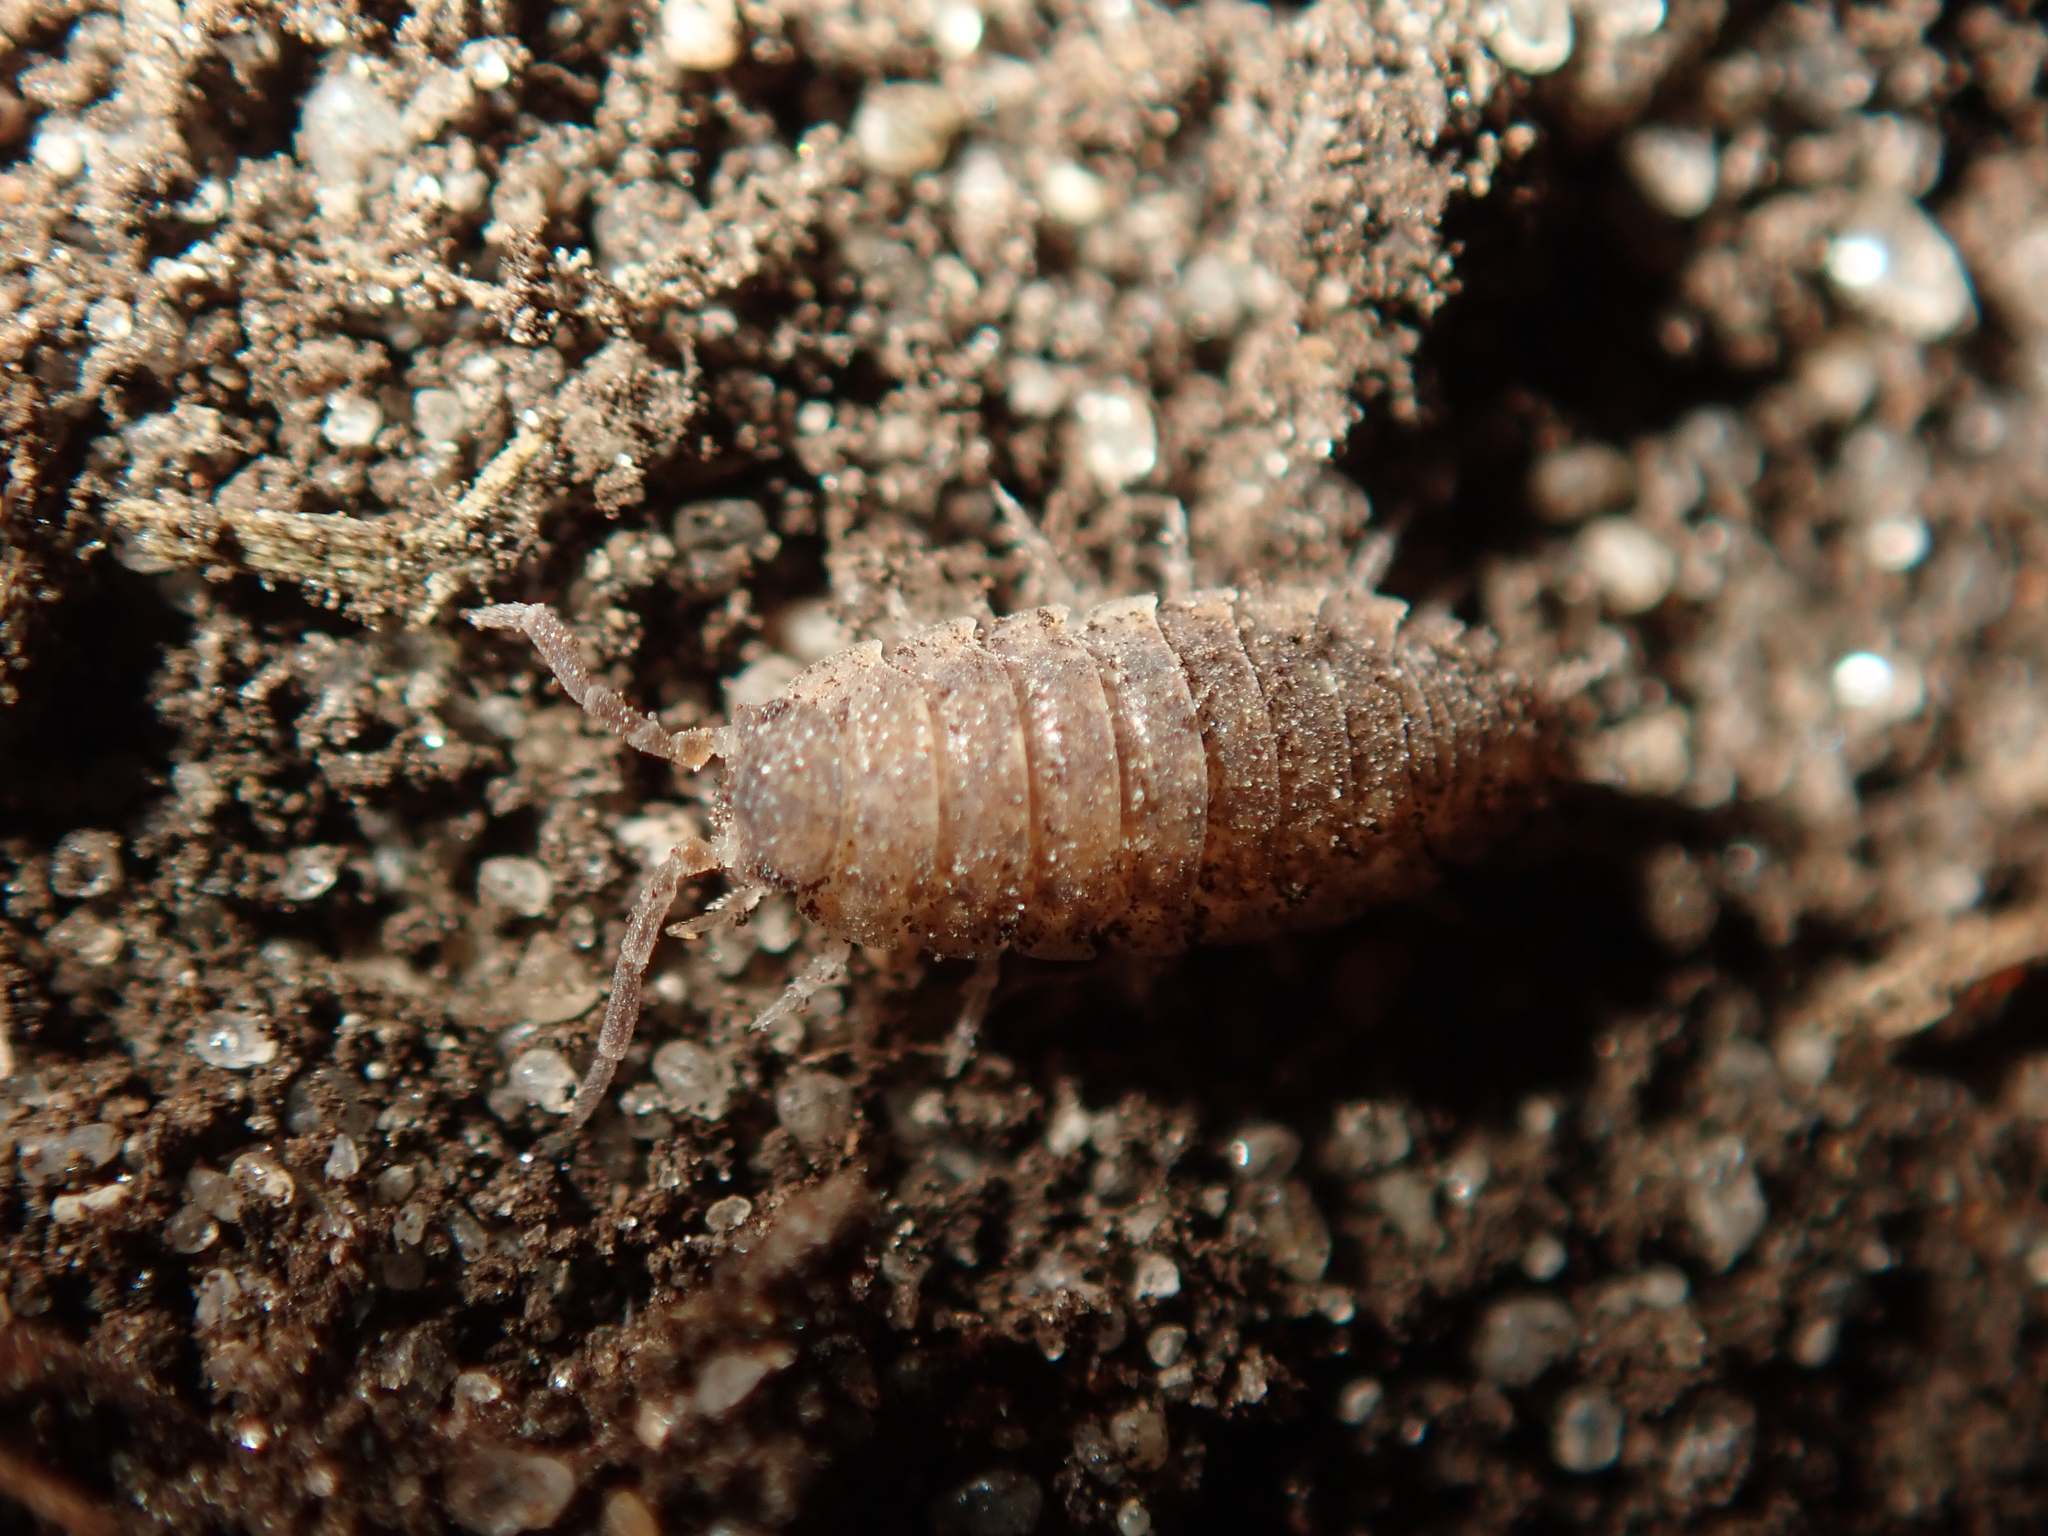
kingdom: Animalia
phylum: Arthropoda
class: Malacostraca
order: Isopoda
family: Porcellionidae
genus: Porcellio
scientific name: Porcellio scaber
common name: Common rough woodlouse
